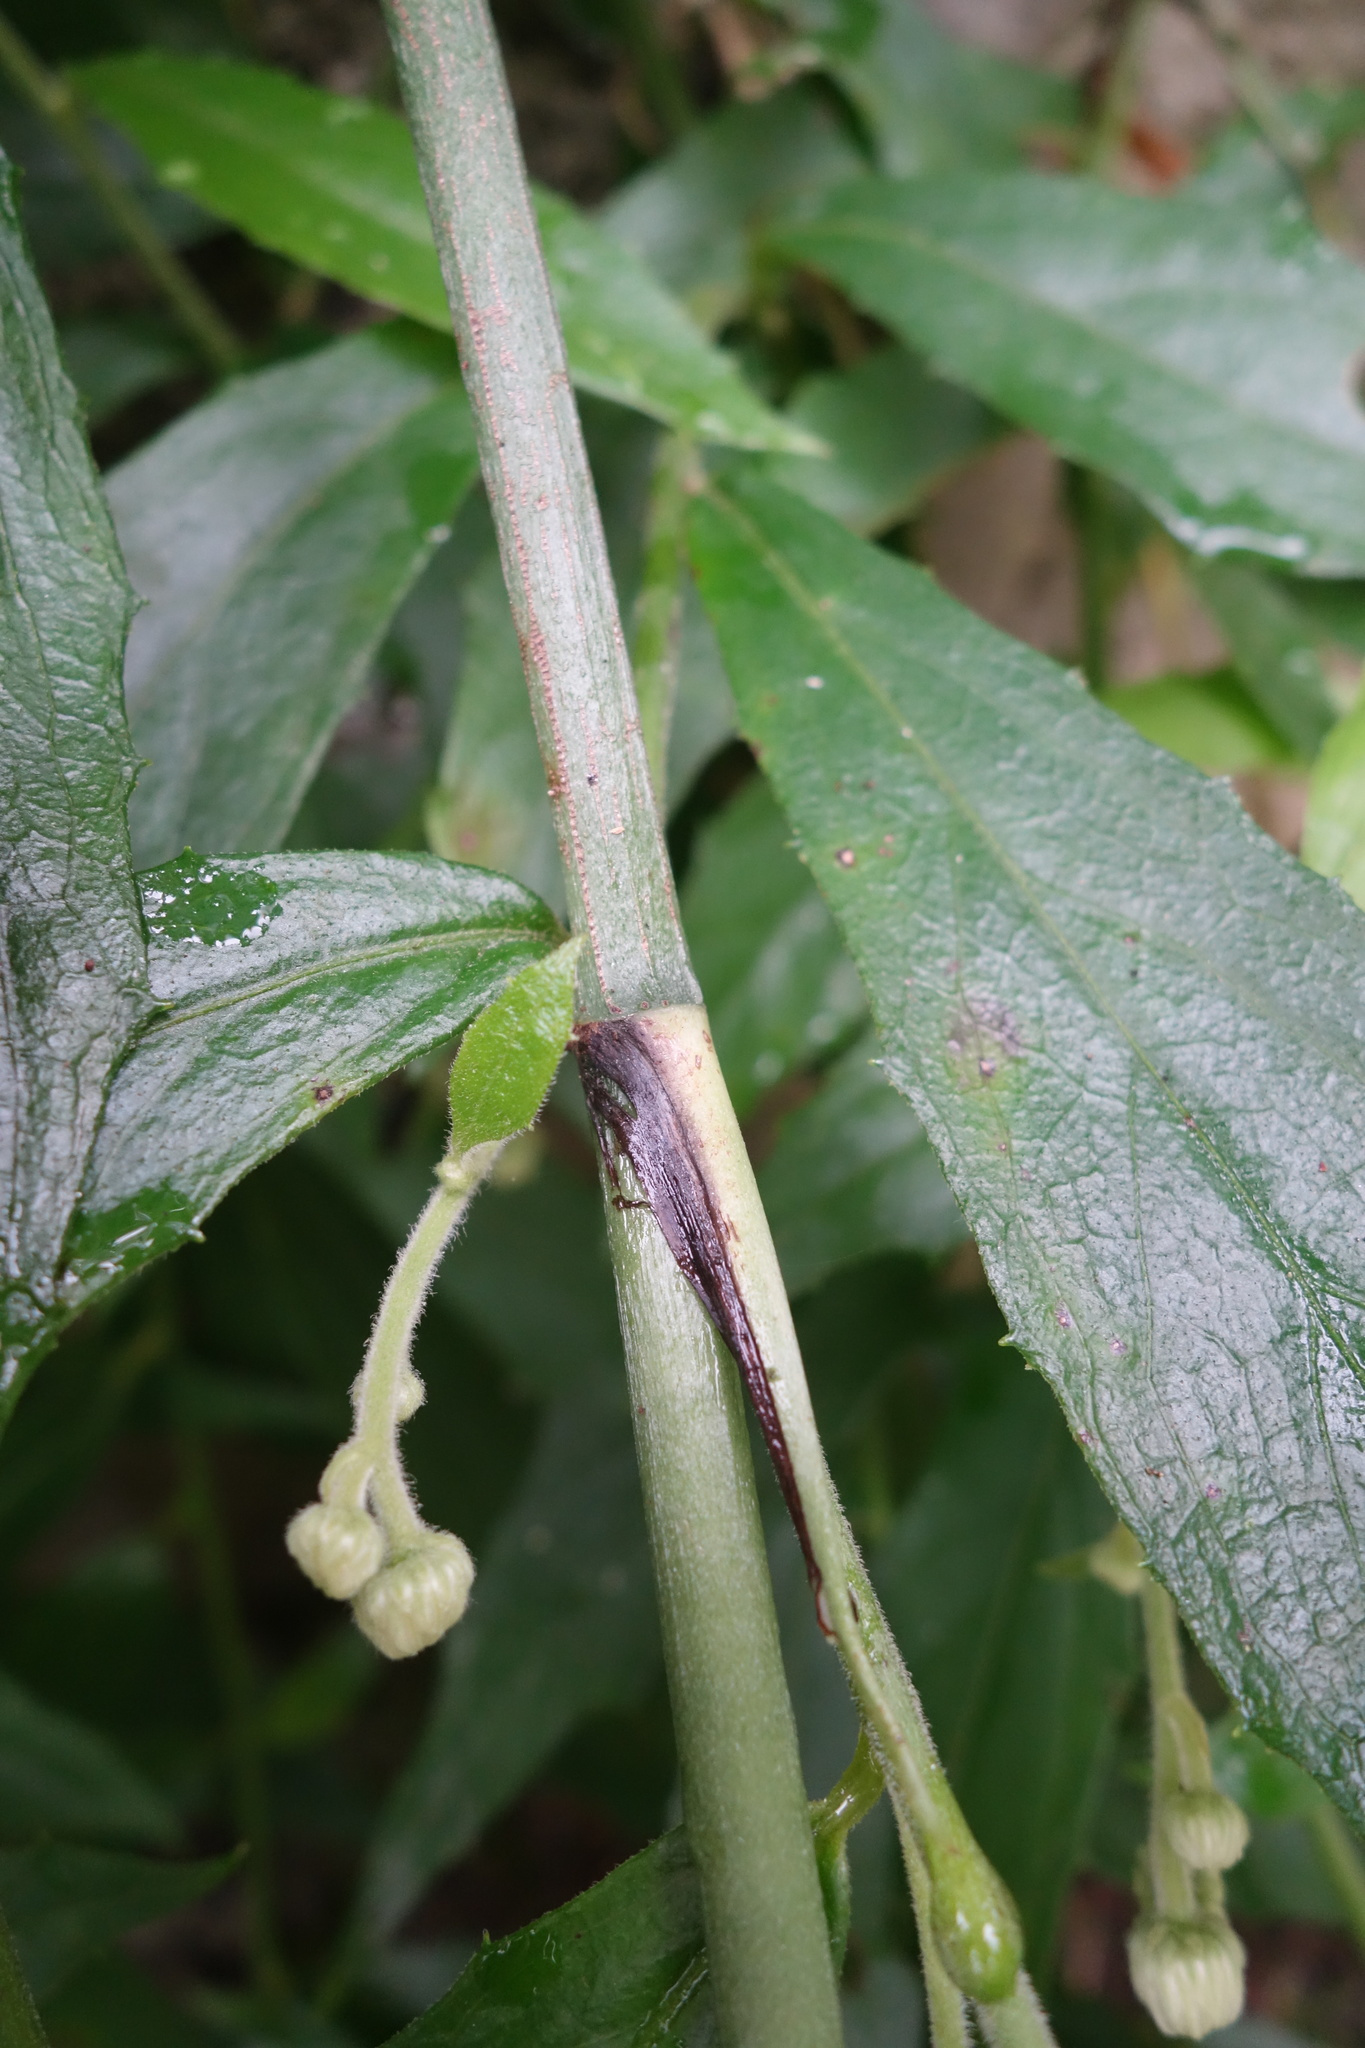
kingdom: Plantae
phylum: Tracheophyta
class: Magnoliopsida
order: Asterales
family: Asteraceae
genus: Blumea
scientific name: Blumea megacephala
